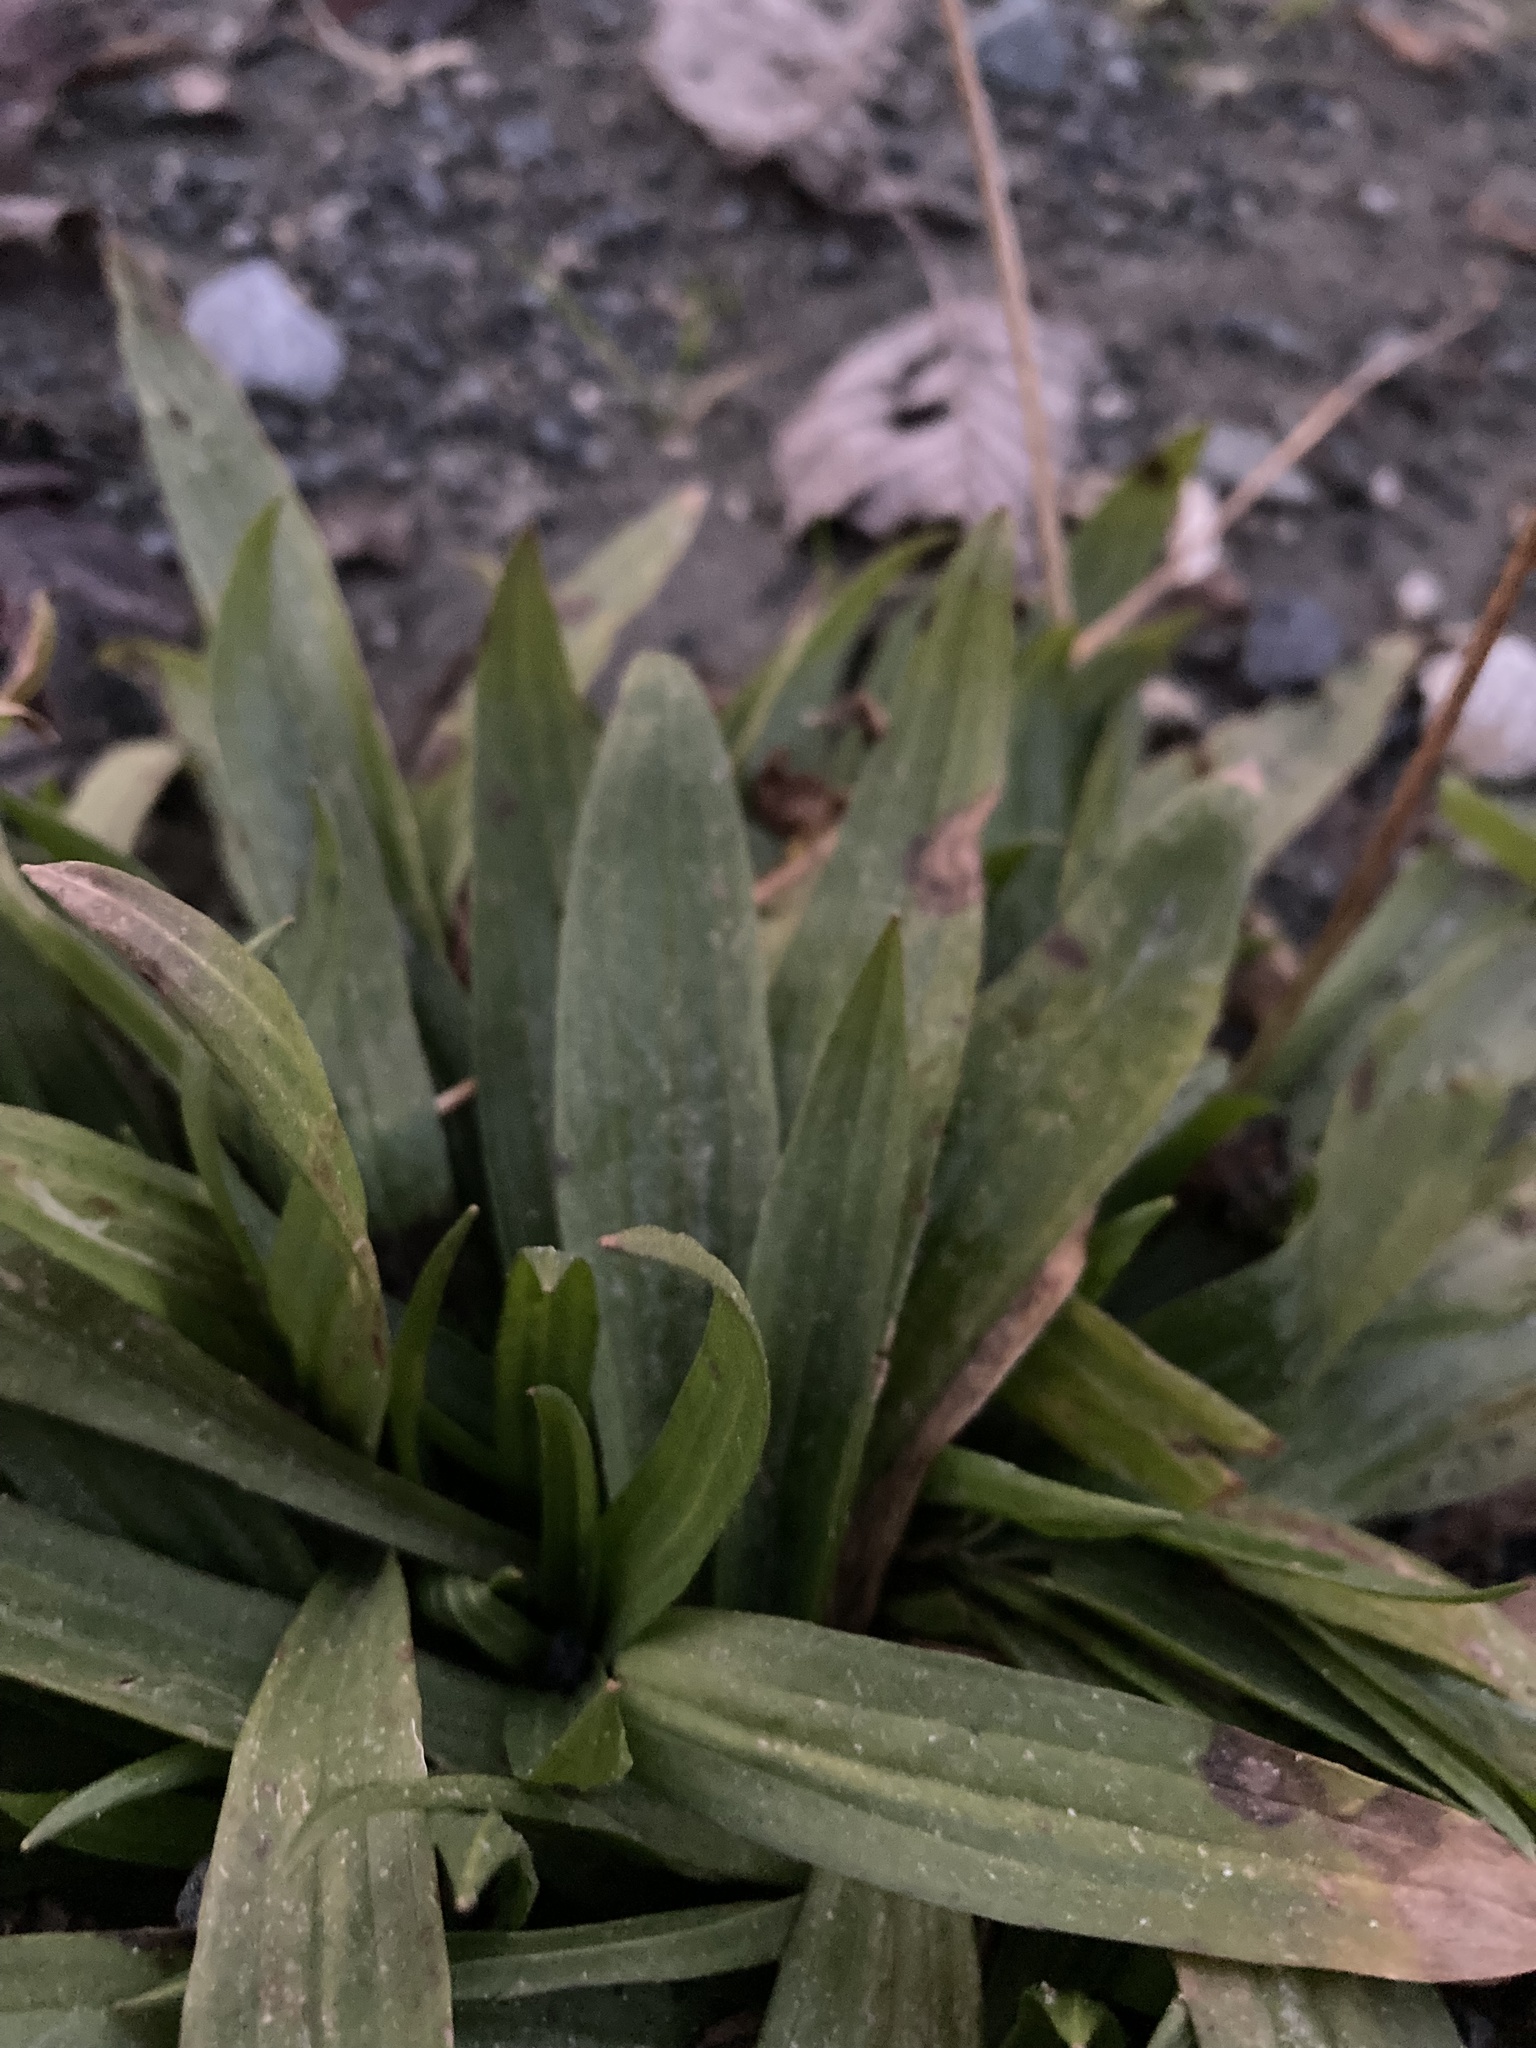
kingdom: Plantae
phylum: Tracheophyta
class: Magnoliopsida
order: Lamiales
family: Plantaginaceae
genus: Plantago
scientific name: Plantago lanceolata
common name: Ribwort plantain
